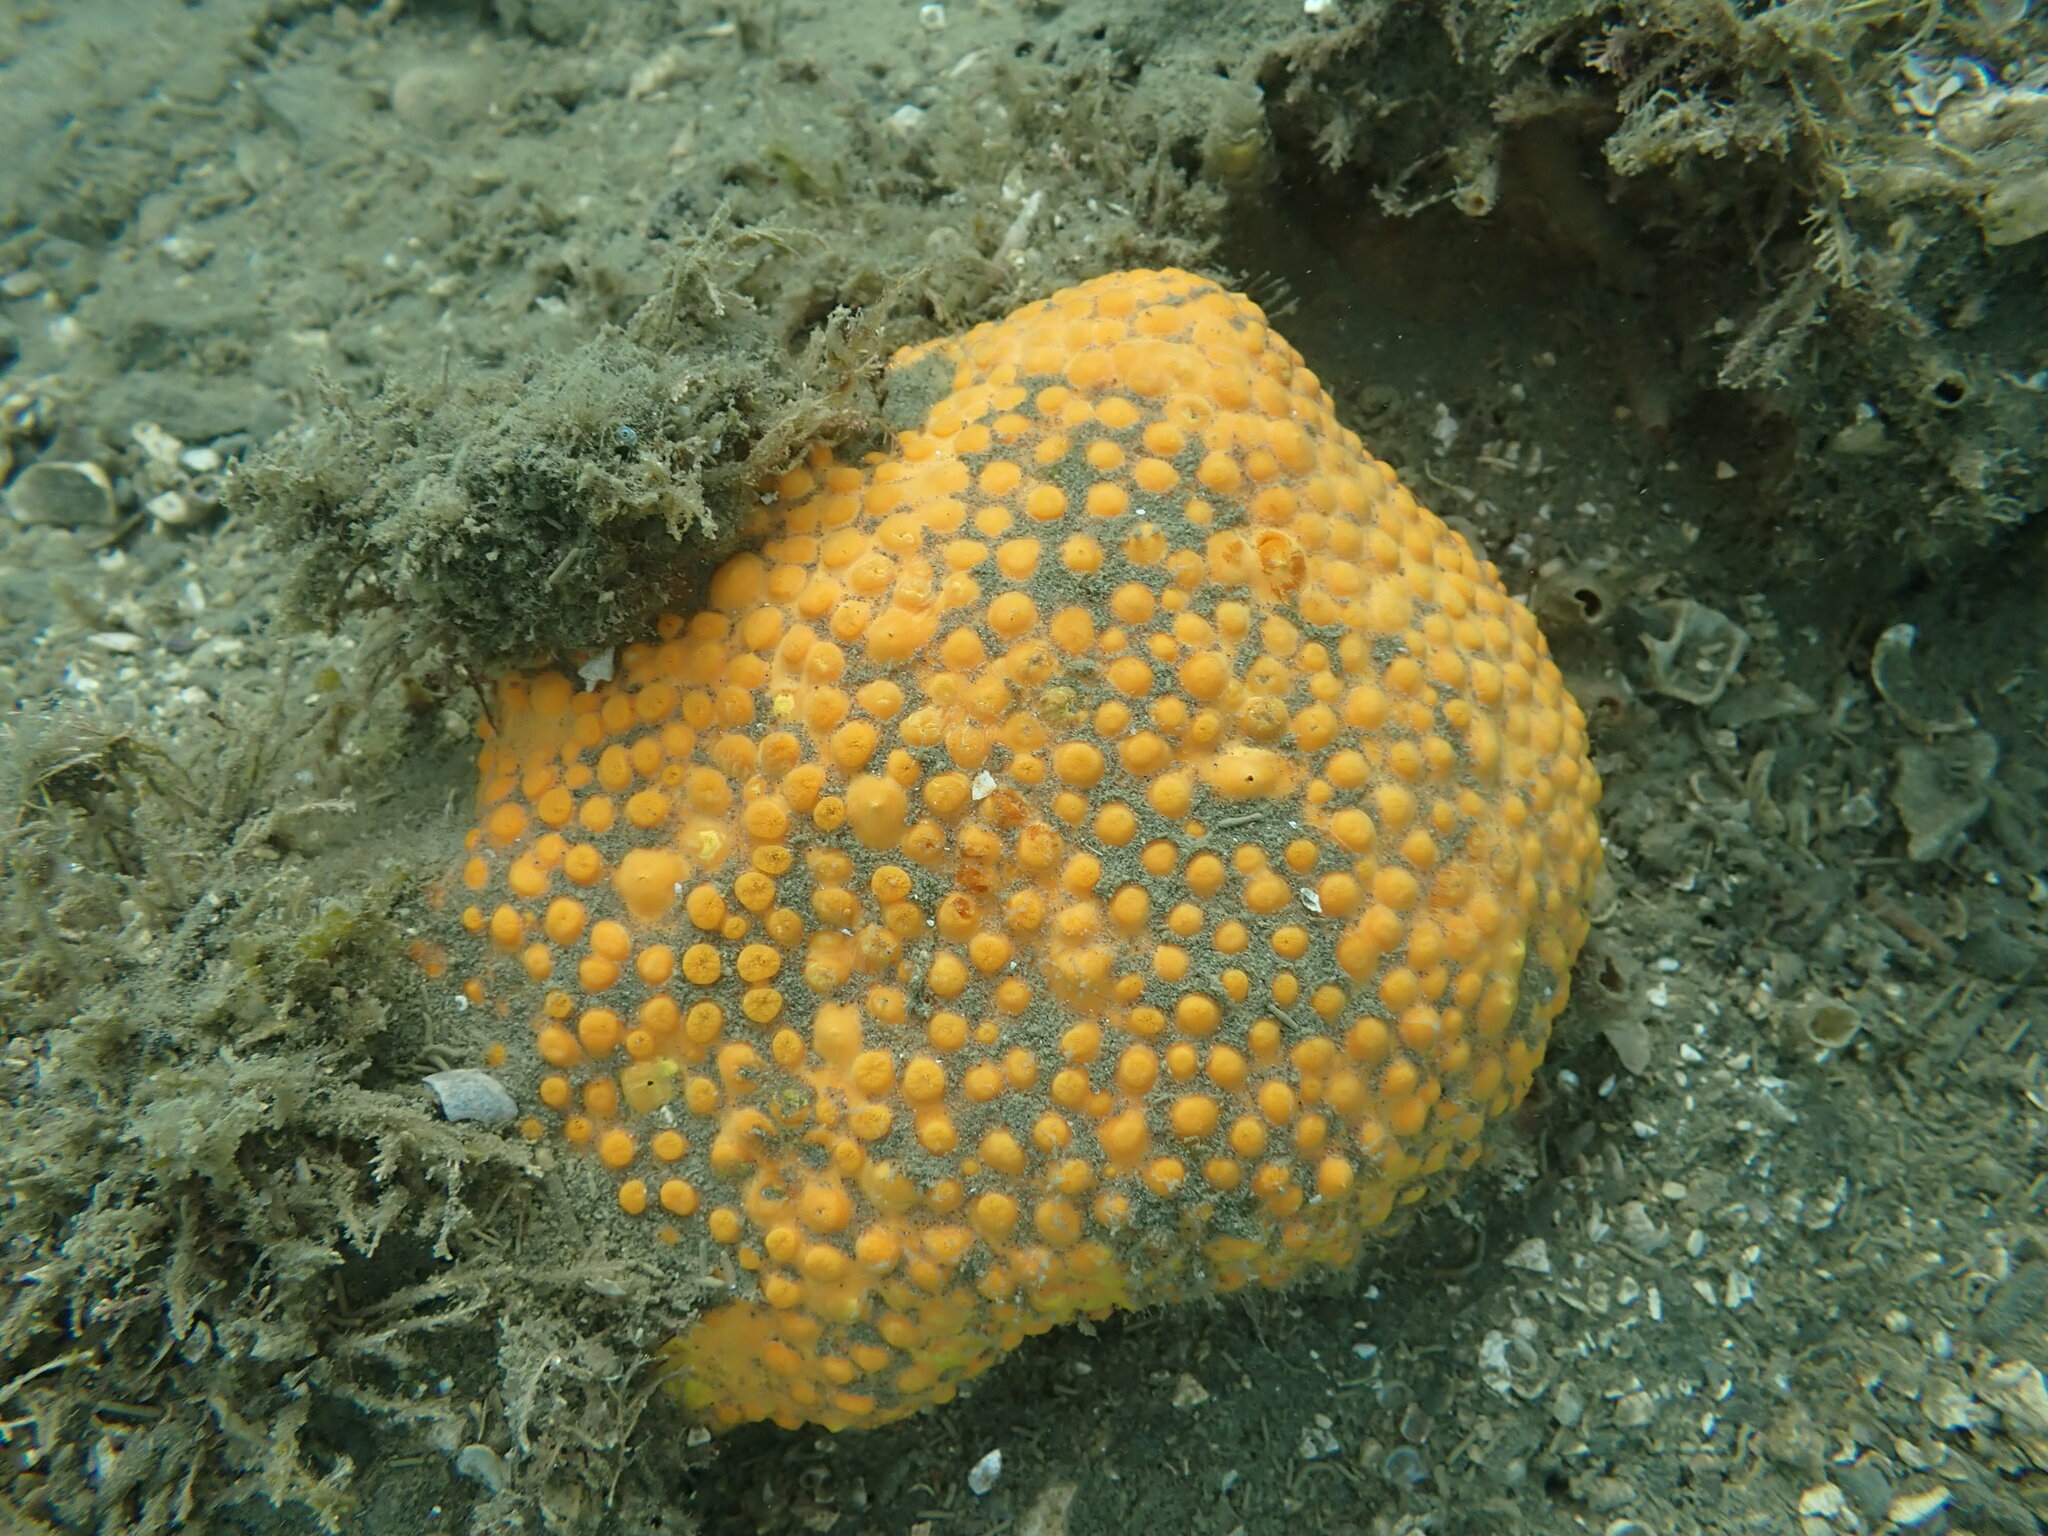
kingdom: Animalia
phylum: Porifera
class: Demospongiae
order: Clionaida
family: Clionaidae
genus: Cliona
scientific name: Cliona celata
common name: Boring sponge
